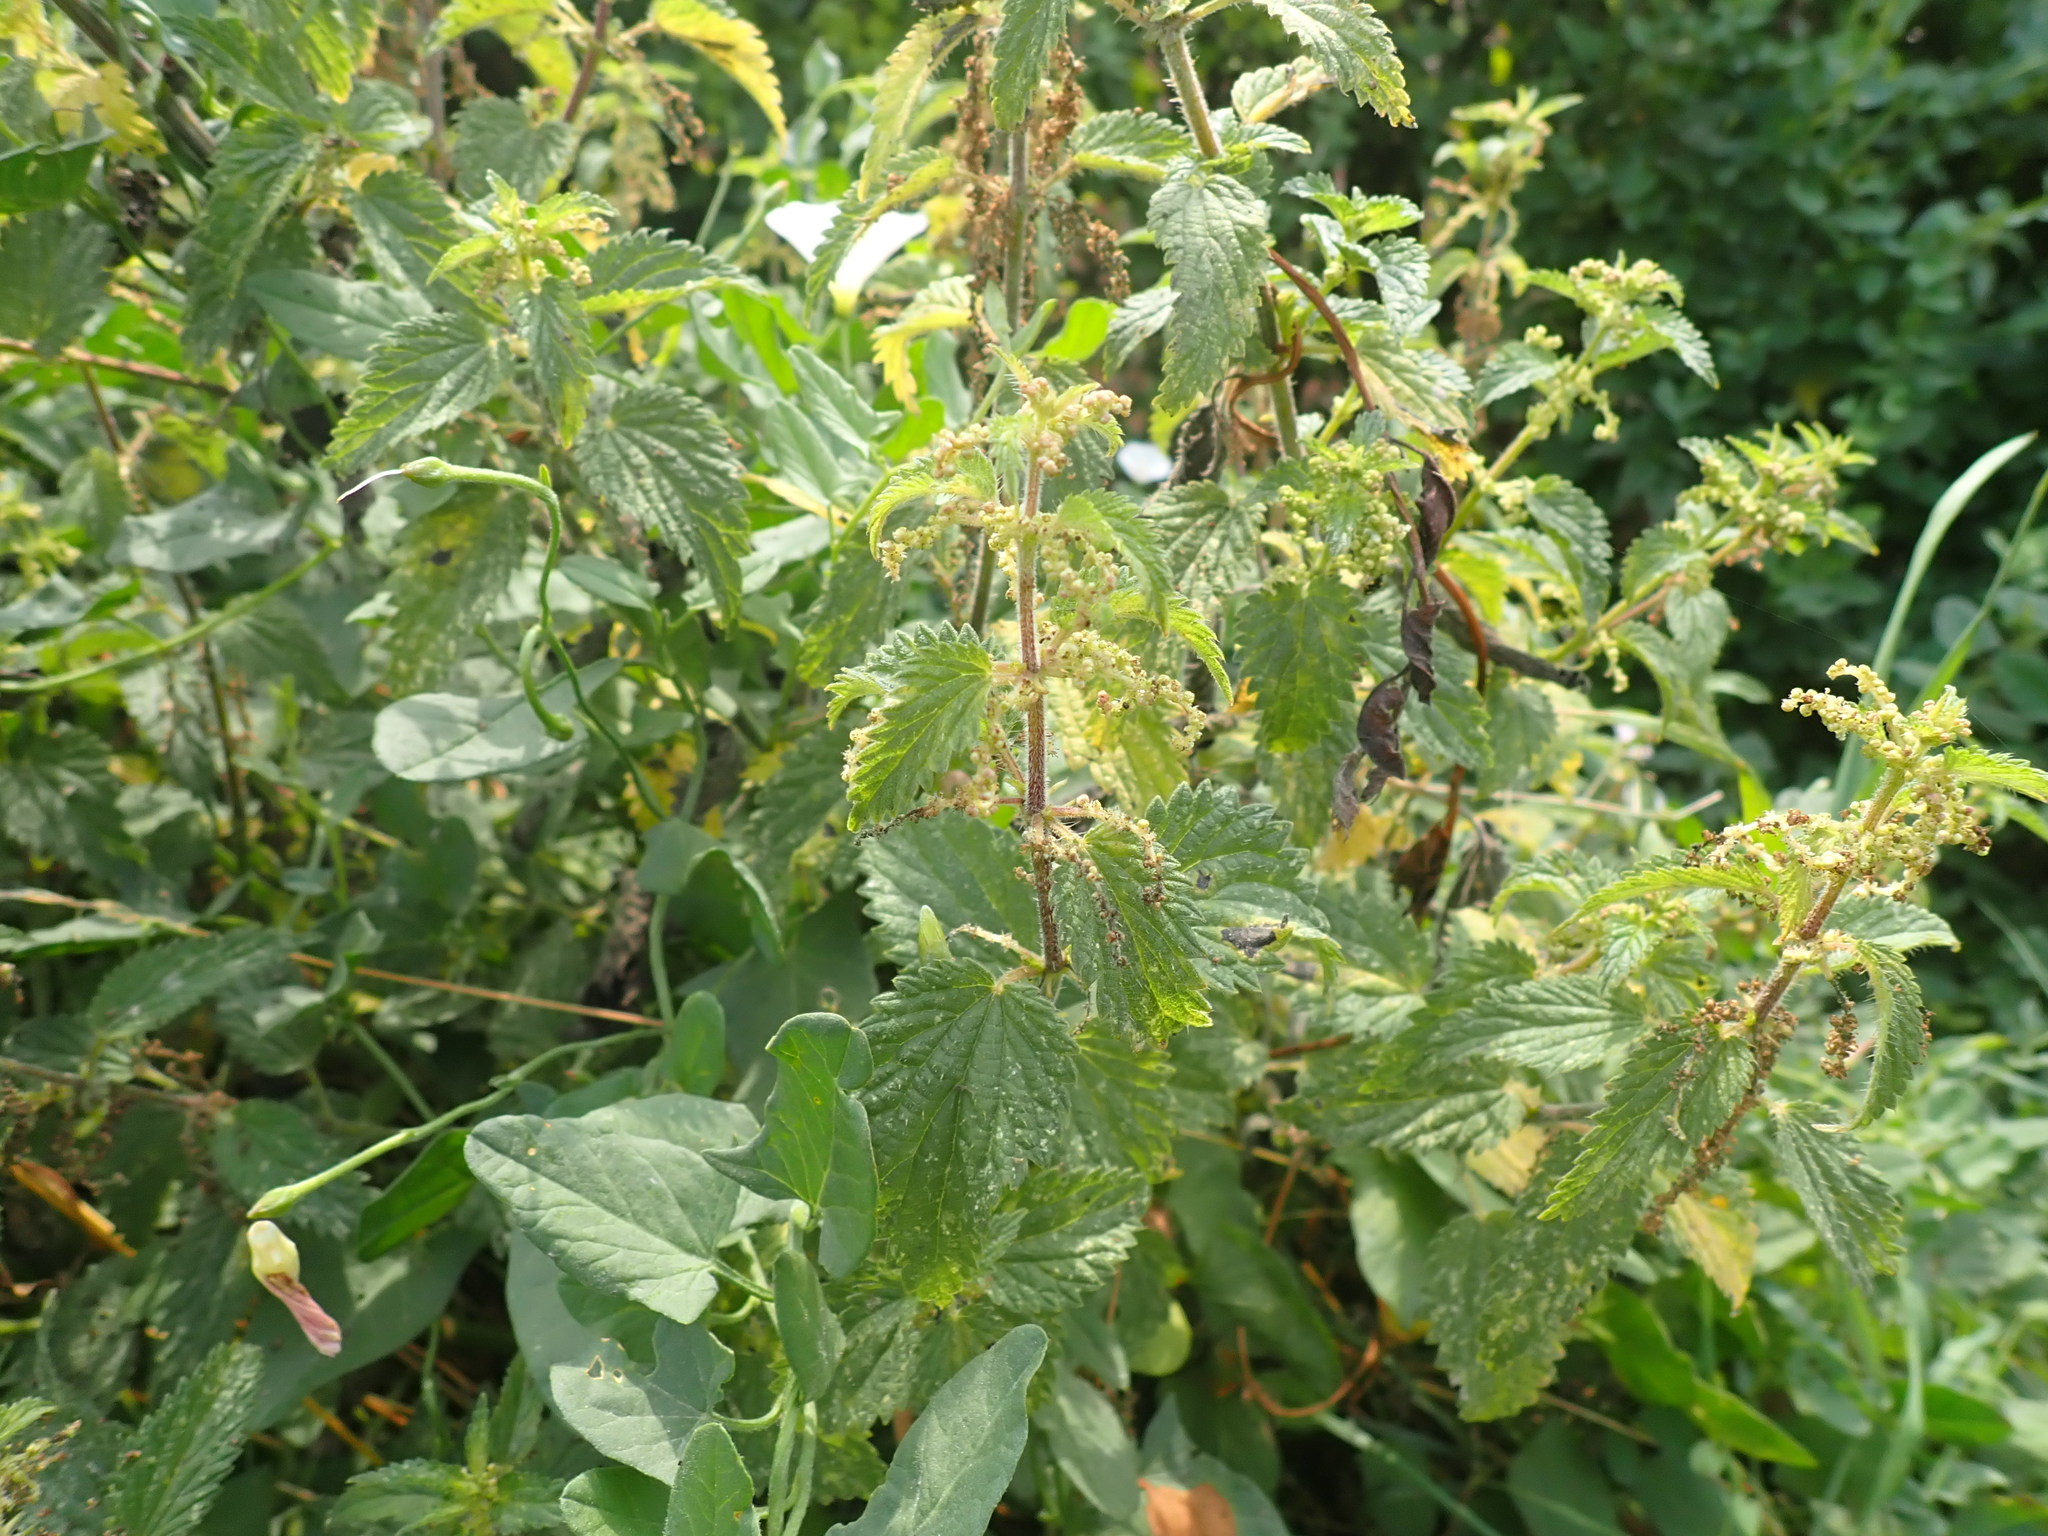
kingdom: Plantae
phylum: Tracheophyta
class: Magnoliopsida
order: Rosales
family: Urticaceae
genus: Urtica
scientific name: Urtica dioica
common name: Common nettle
